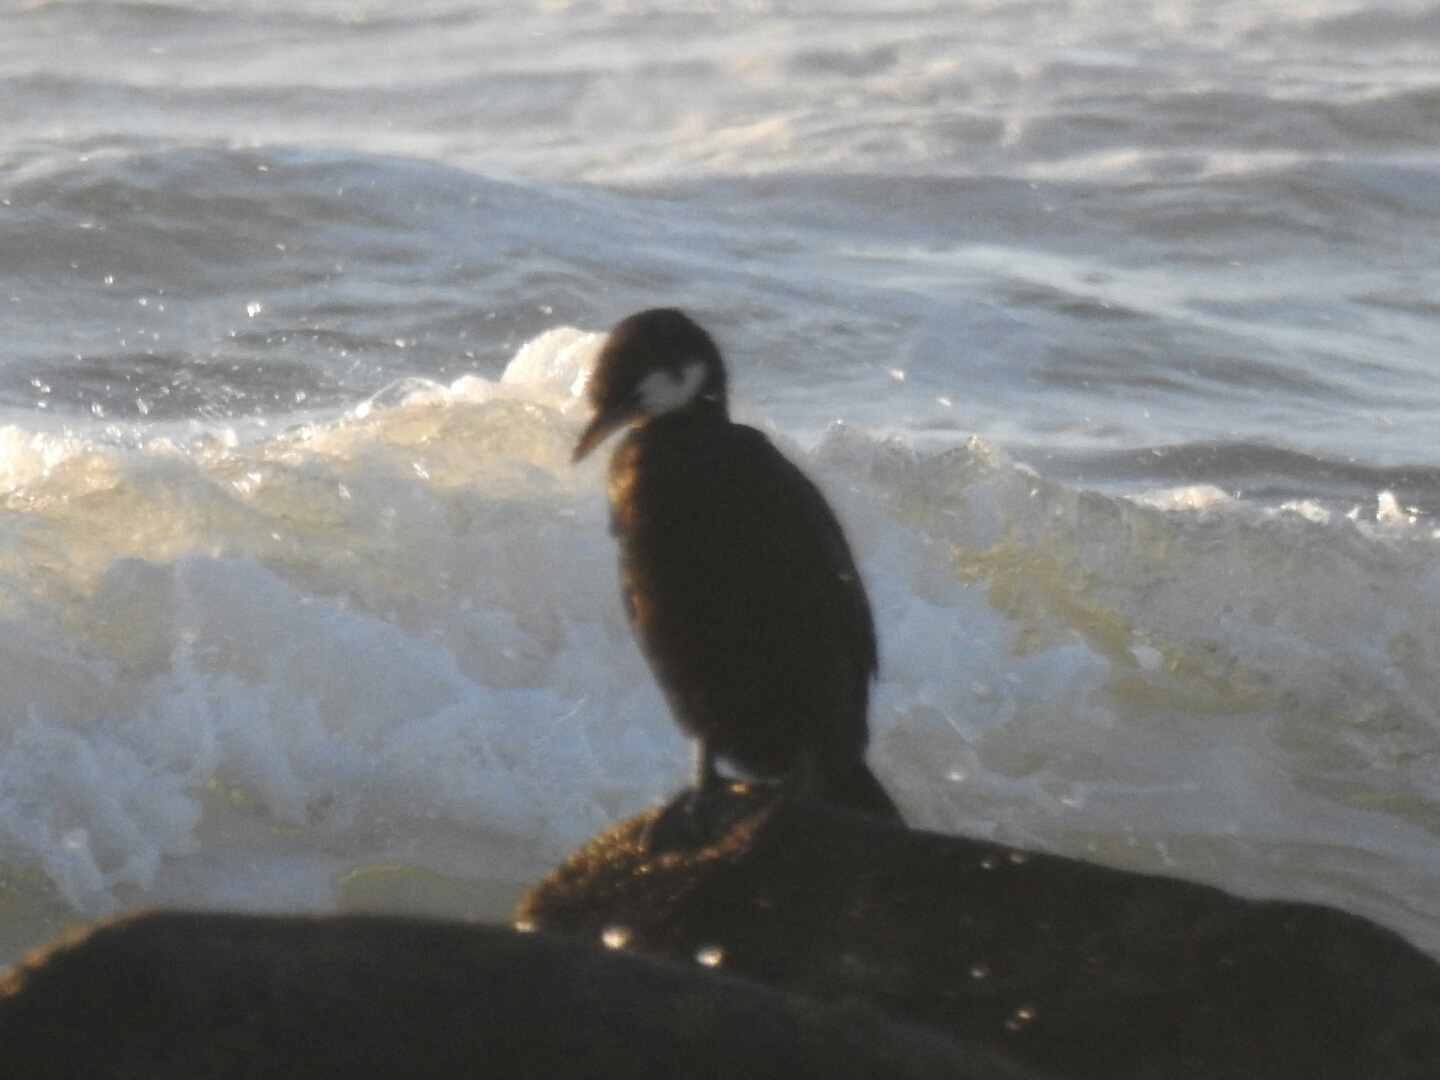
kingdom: Animalia
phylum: Chordata
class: Aves
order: Suliformes
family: Phalacrocoracidae
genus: Microcarbo
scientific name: Microcarbo melanoleucos
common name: Little pied cormorant
